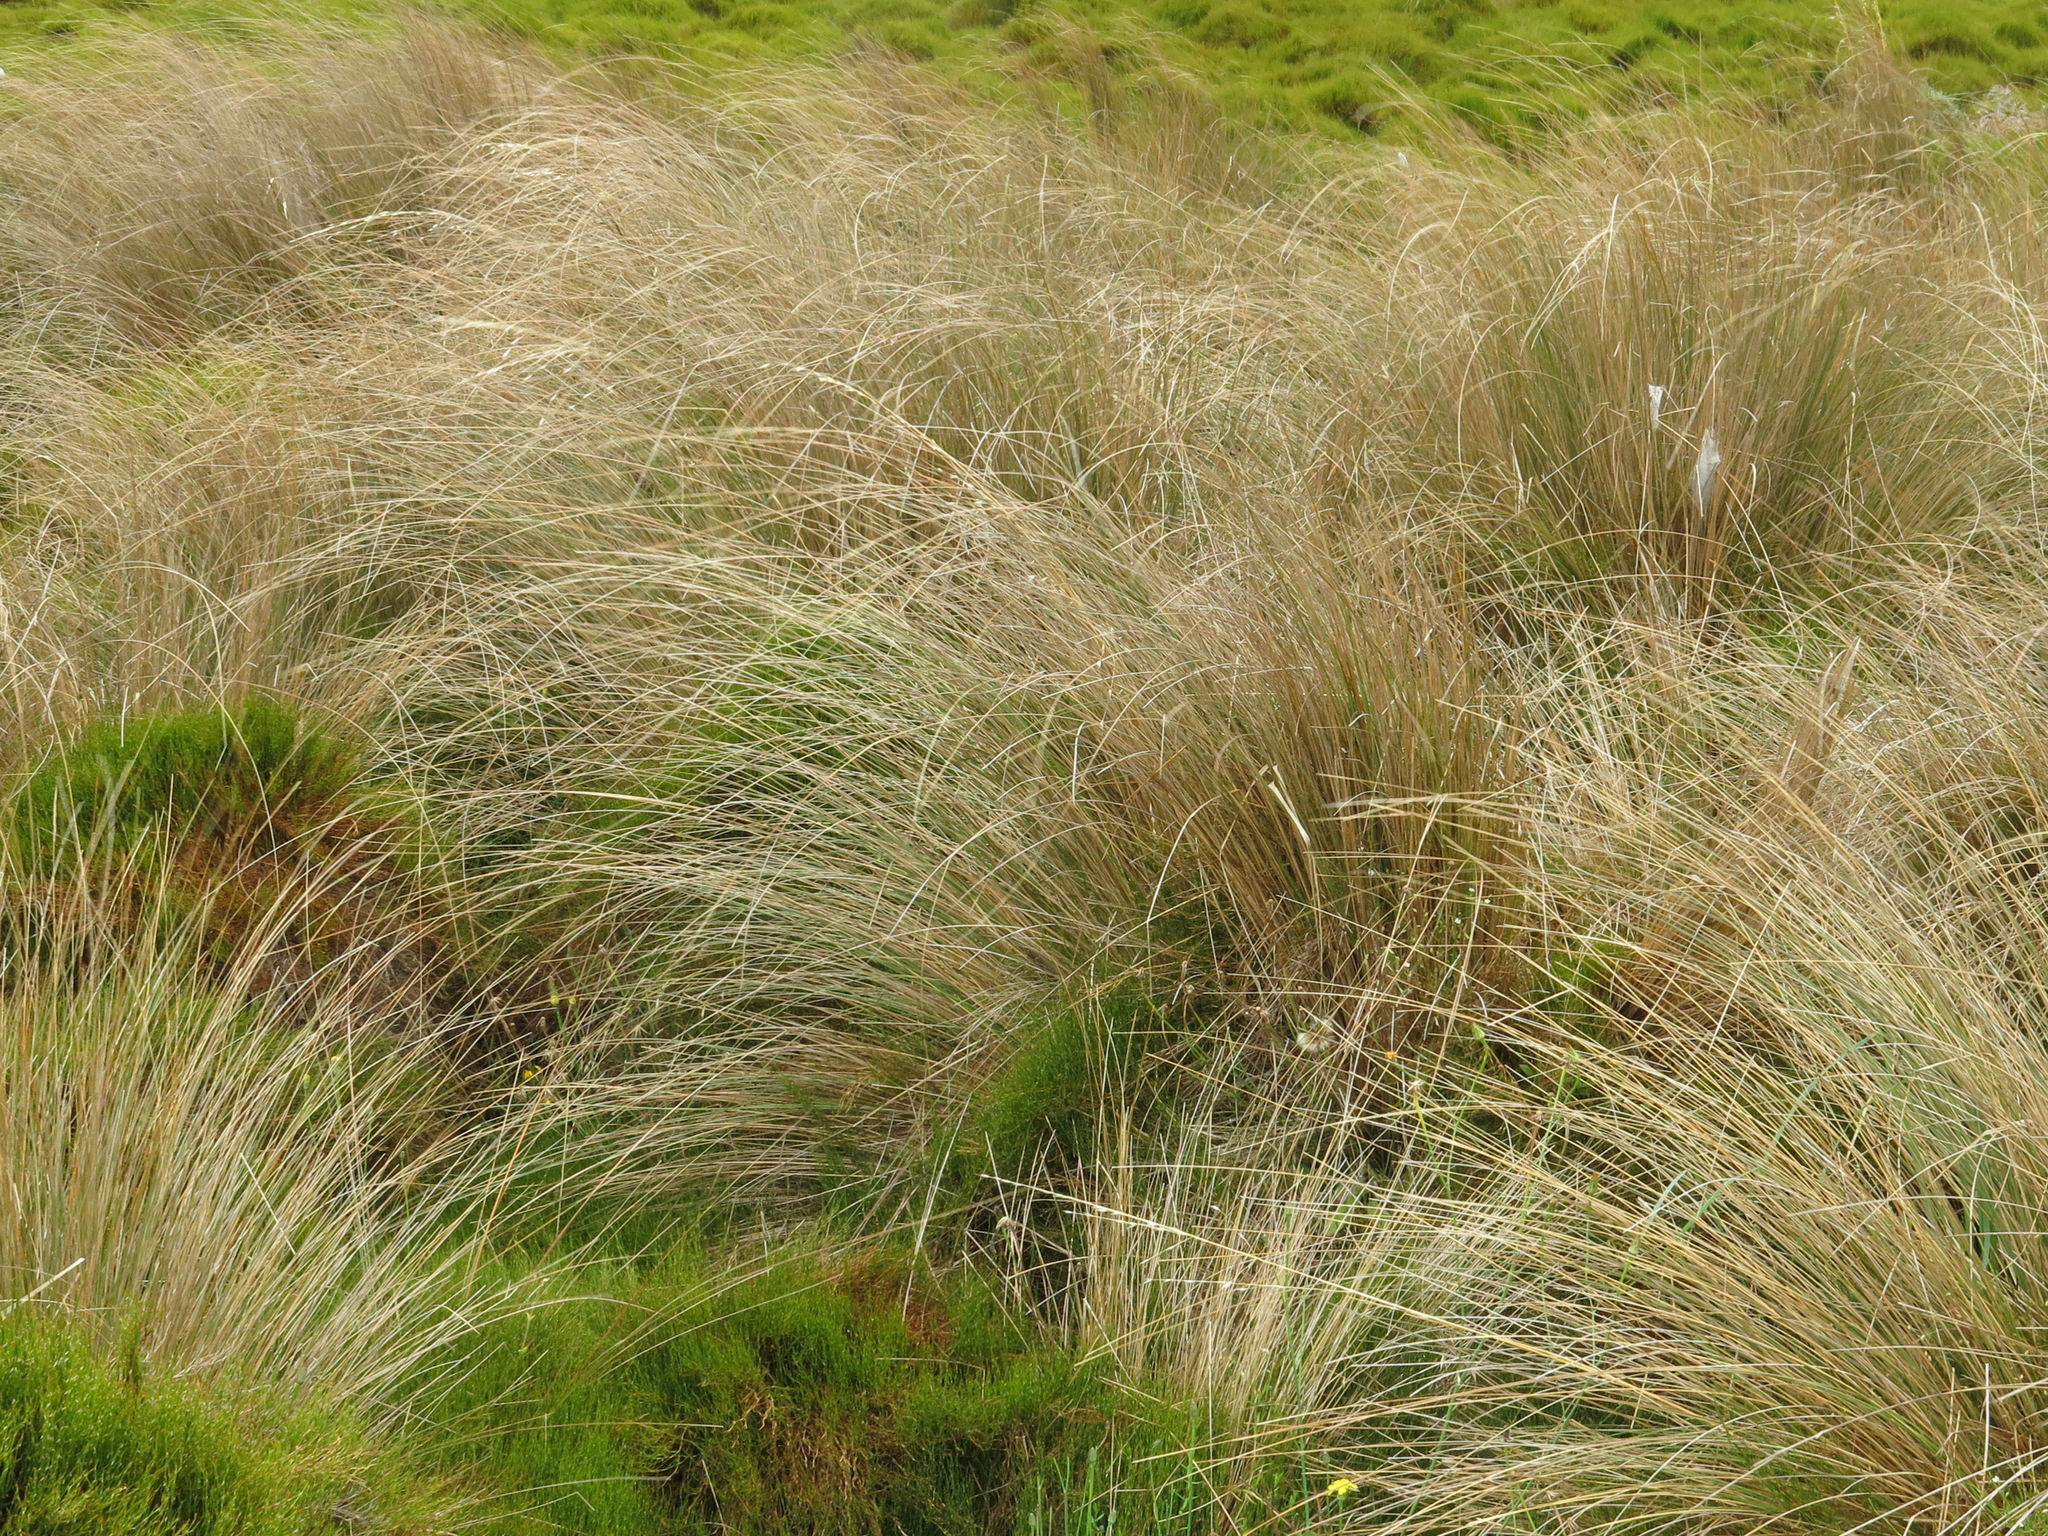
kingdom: Plantae
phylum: Tracheophyta
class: Liliopsida
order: Poales
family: Poaceae
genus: Chionochloa
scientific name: Chionochloa rubra
